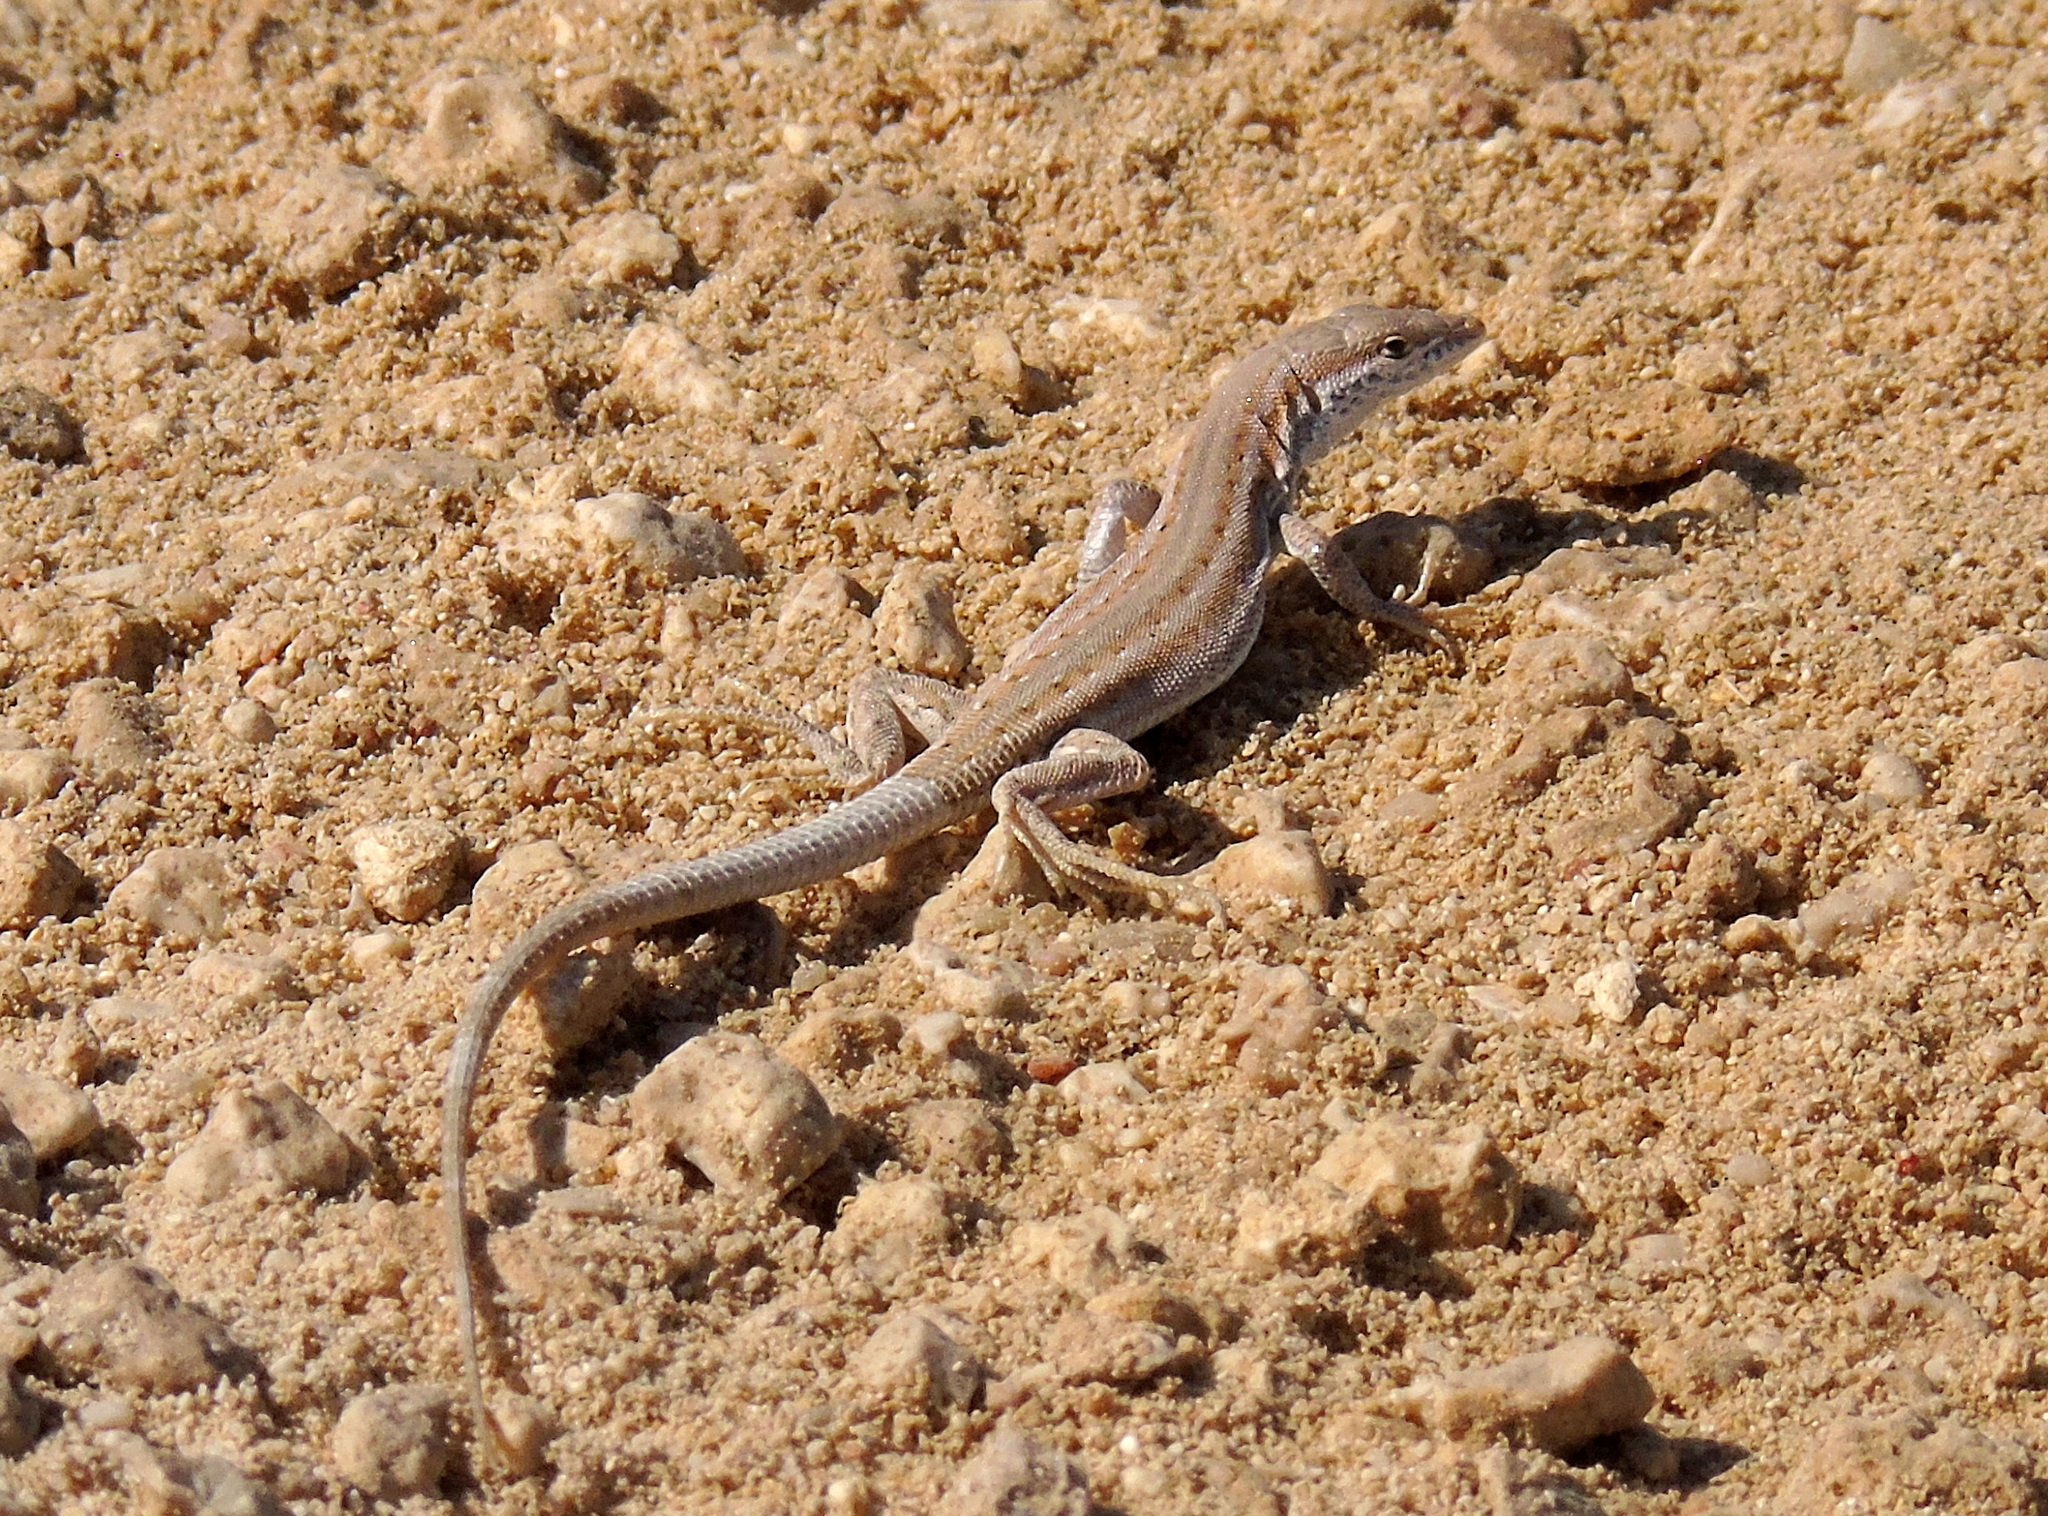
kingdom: Animalia
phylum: Chordata
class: Squamata
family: Lacertidae
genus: Acanthodactylus
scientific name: Acanthodactylus boskianus
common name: Bosc’s fringe-toed lizard
